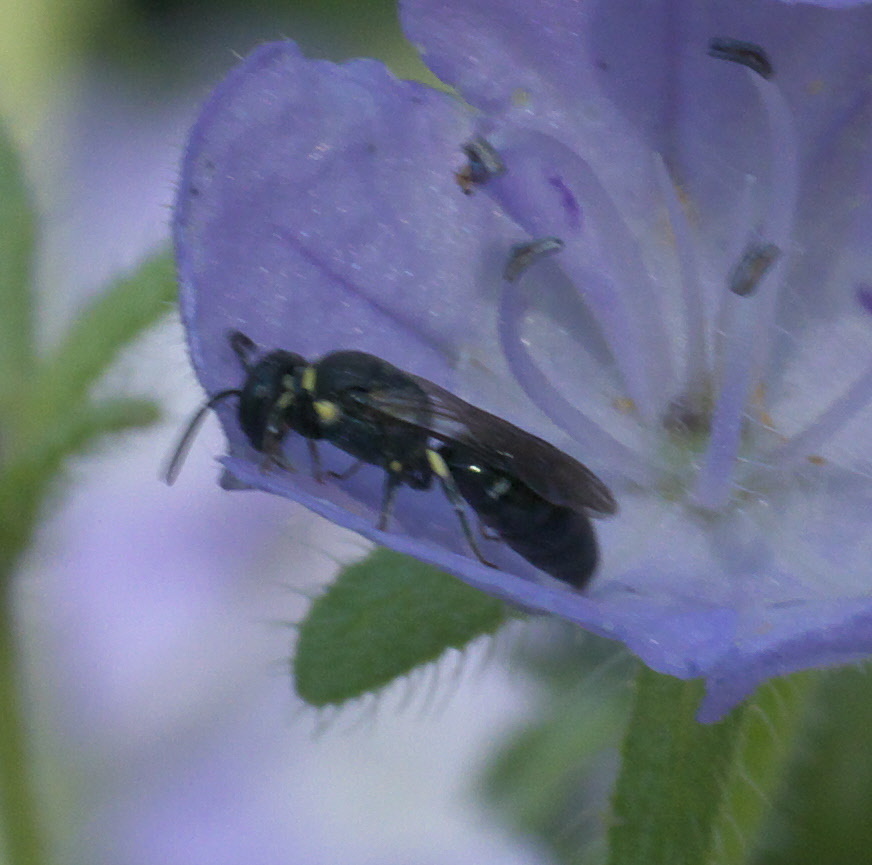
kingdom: Animalia
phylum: Arthropoda
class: Insecta
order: Hymenoptera
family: Colletidae
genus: Hylaeus
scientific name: Hylaeus modestus
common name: Yellow-faced bee
